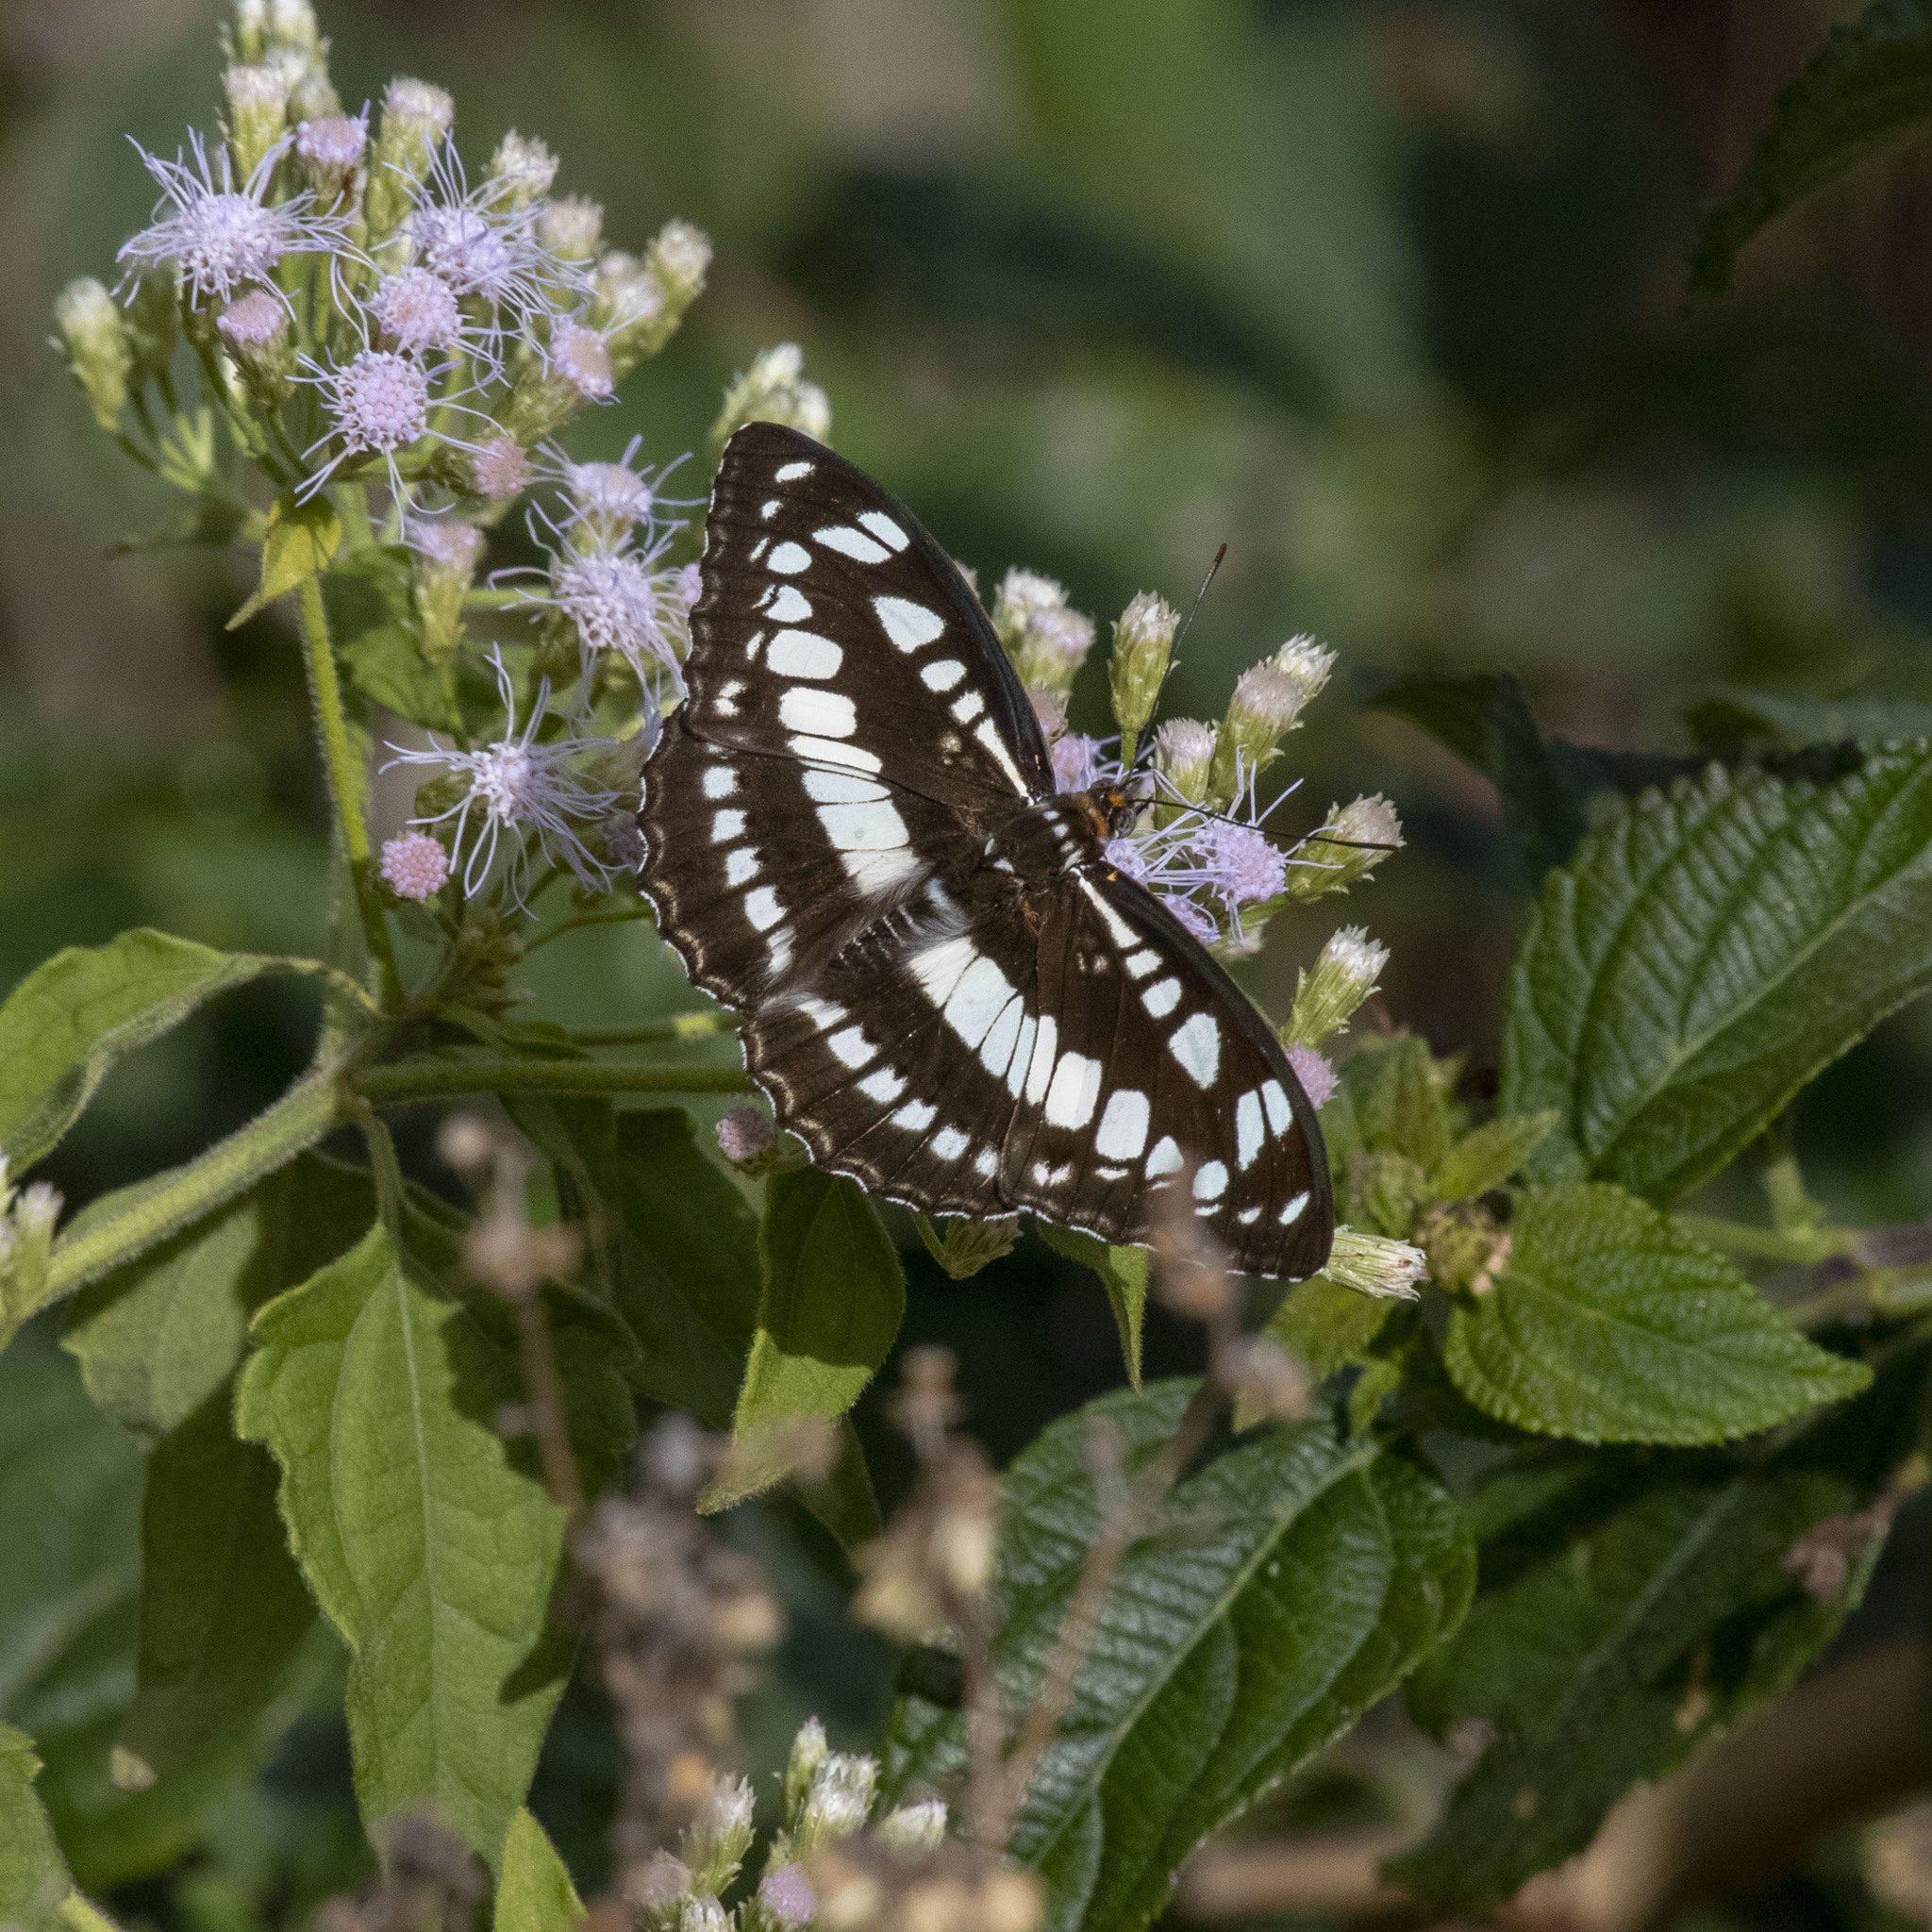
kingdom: Animalia
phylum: Arthropoda
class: Insecta
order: Lepidoptera
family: Nymphalidae
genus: Parathyma
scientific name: Parathyma perius
